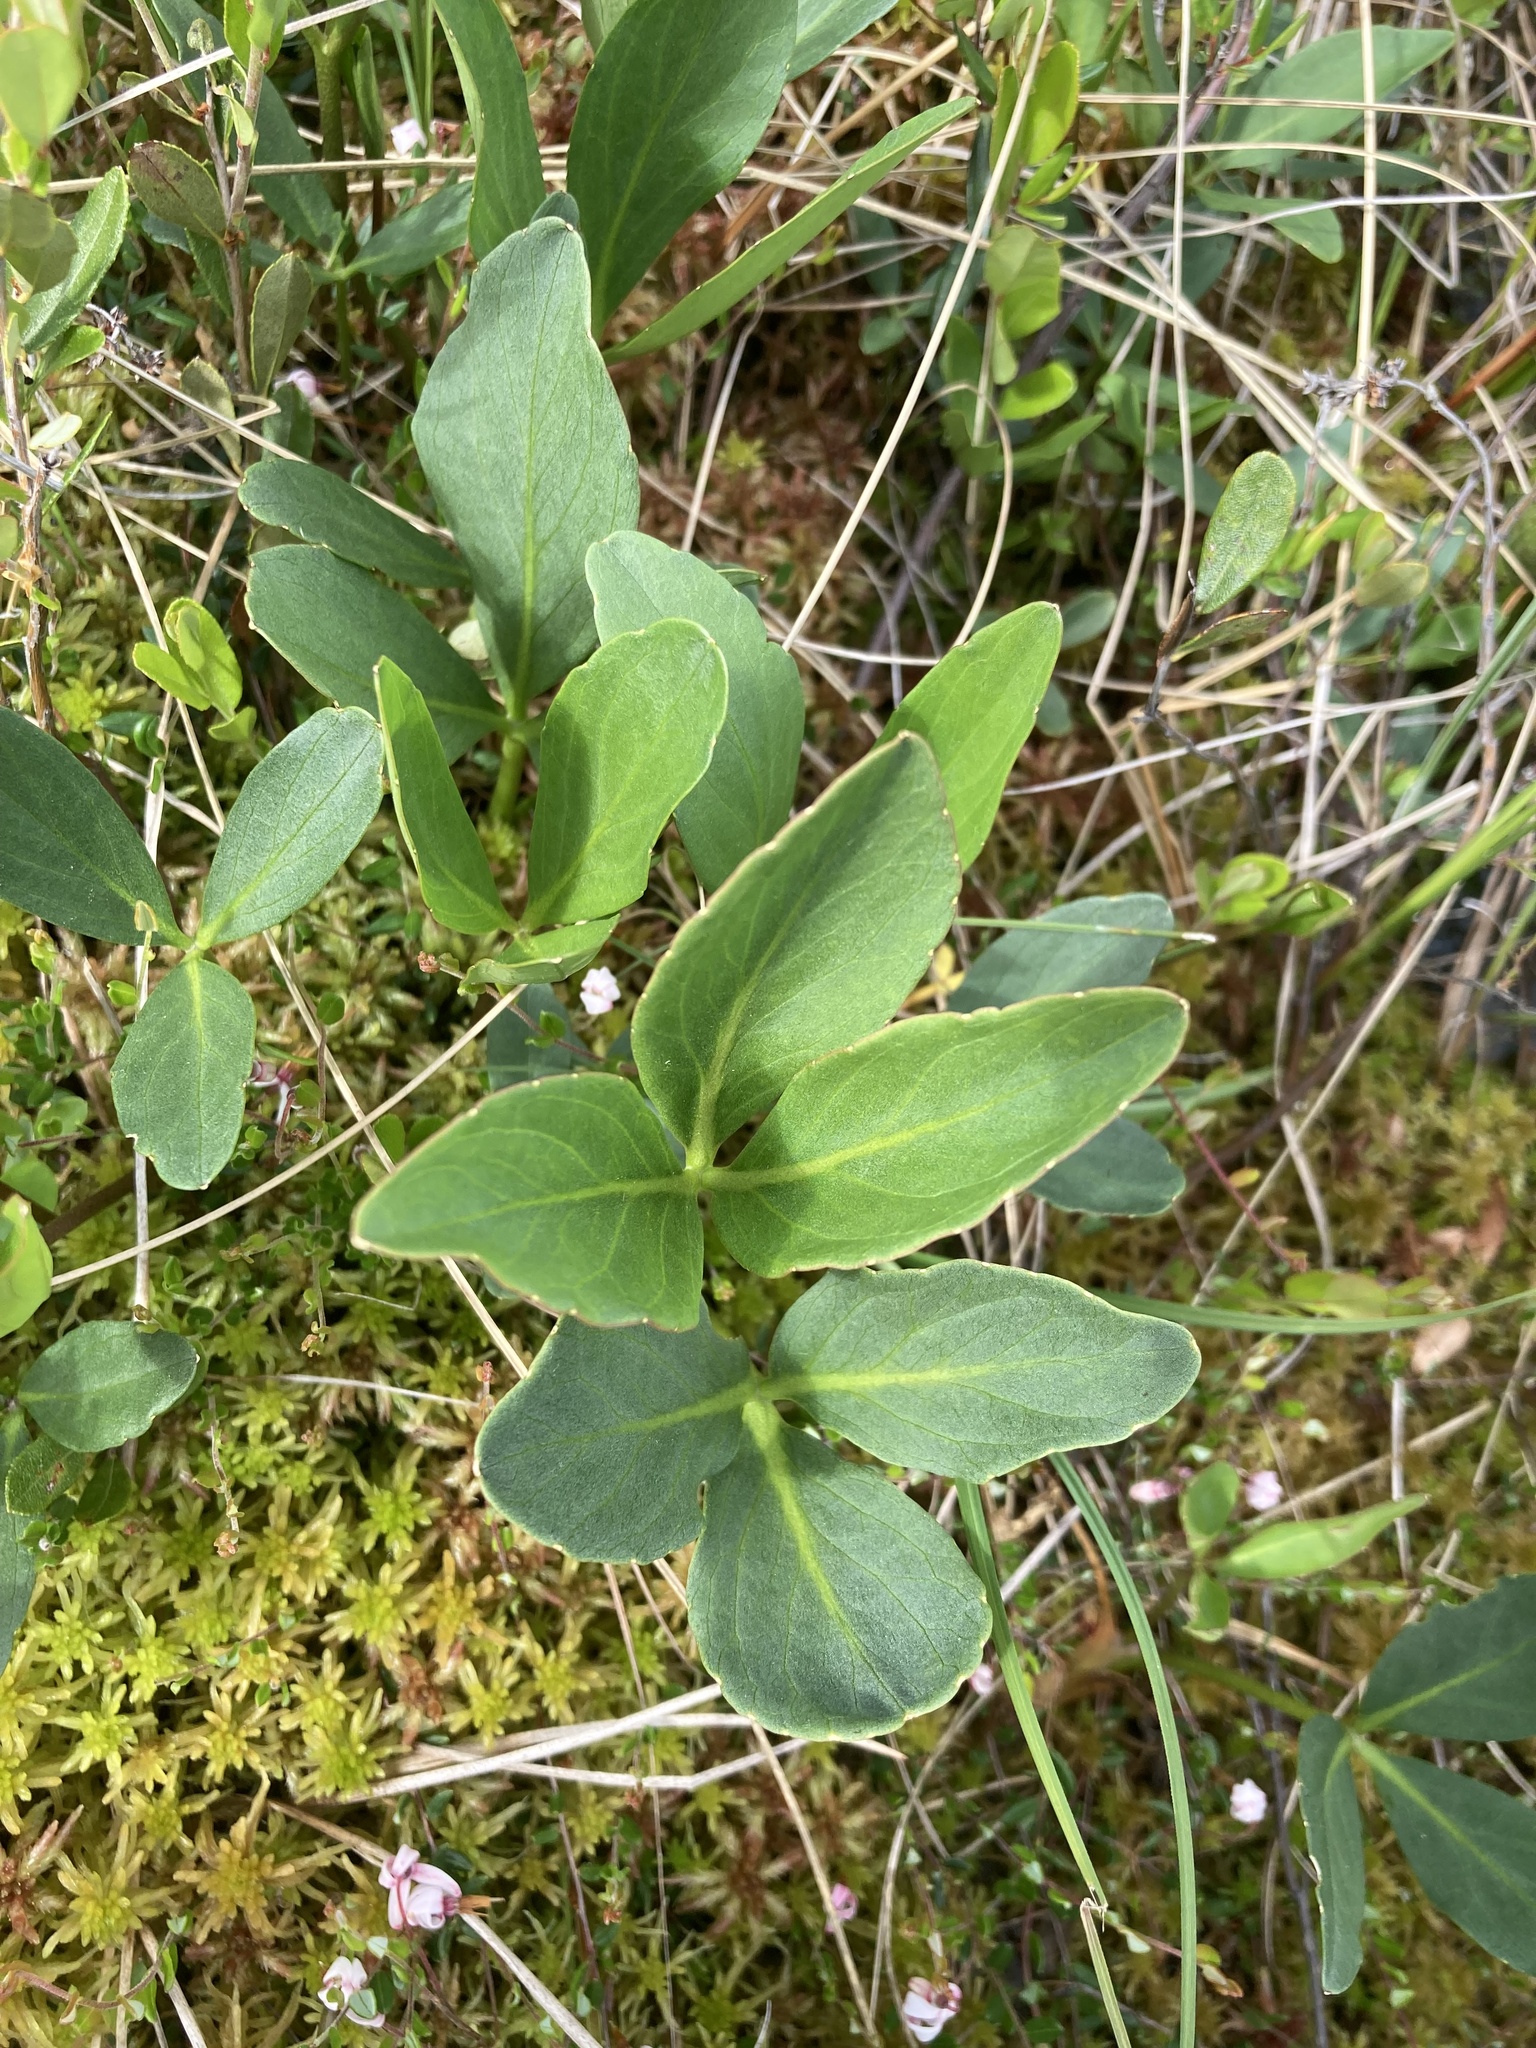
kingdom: Plantae
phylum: Tracheophyta
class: Magnoliopsida
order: Asterales
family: Menyanthaceae
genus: Menyanthes
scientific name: Menyanthes trifoliata
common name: Bogbean
